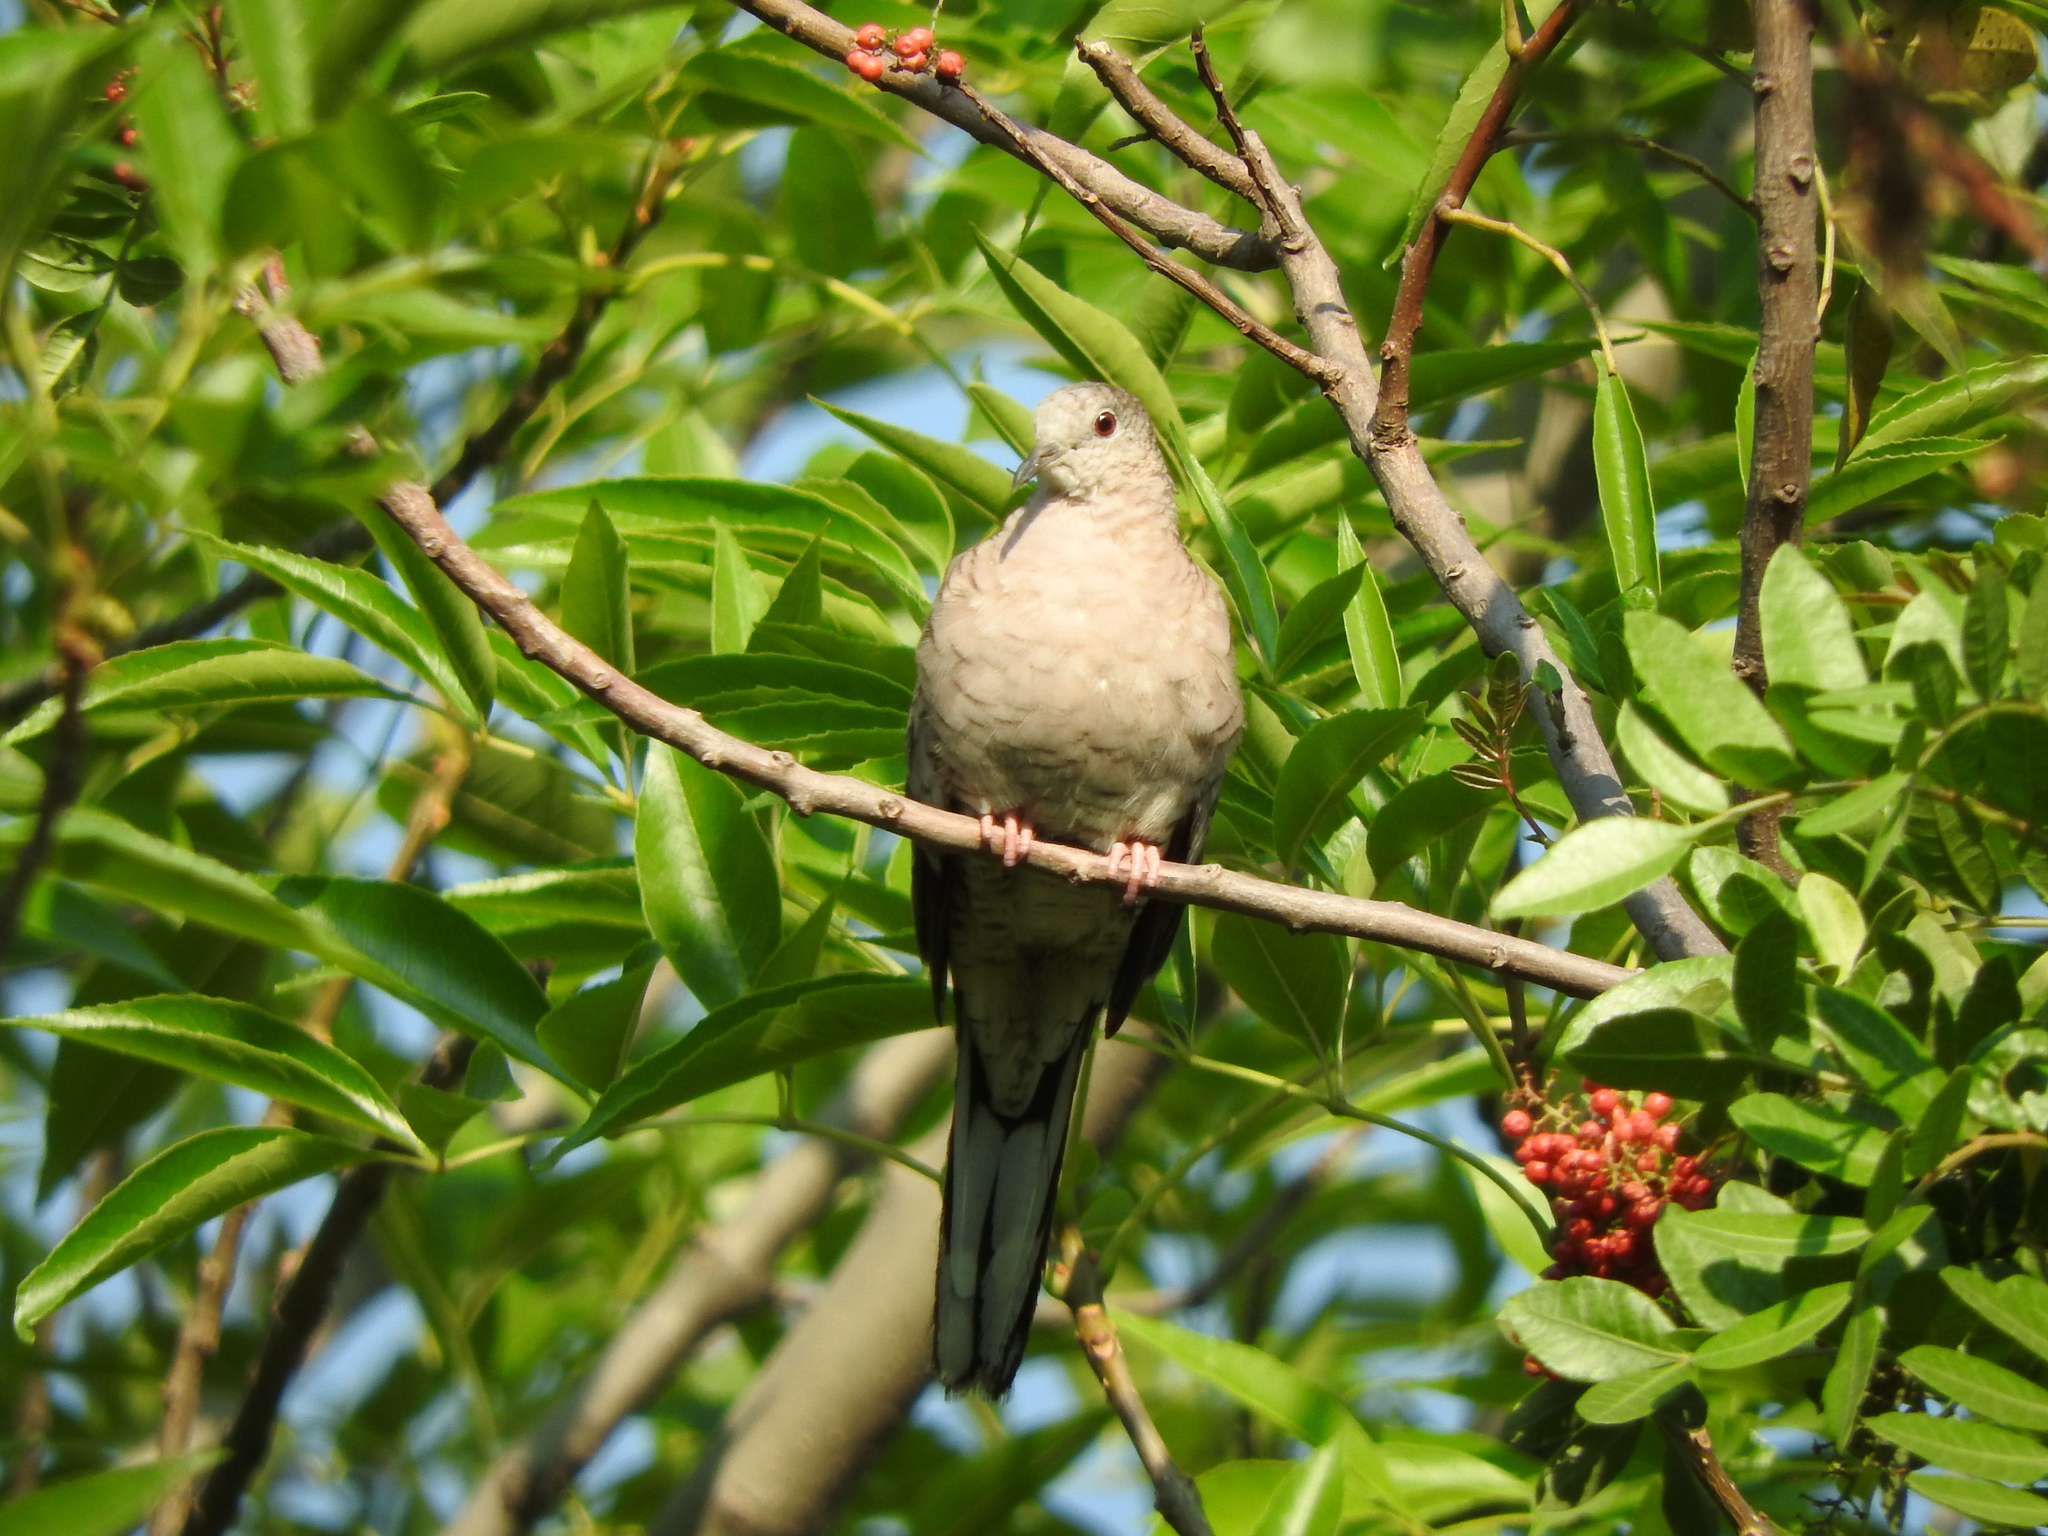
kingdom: Animalia
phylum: Chordata
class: Aves
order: Columbiformes
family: Columbidae
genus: Columbina
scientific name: Columbina inca
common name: Inca dove
